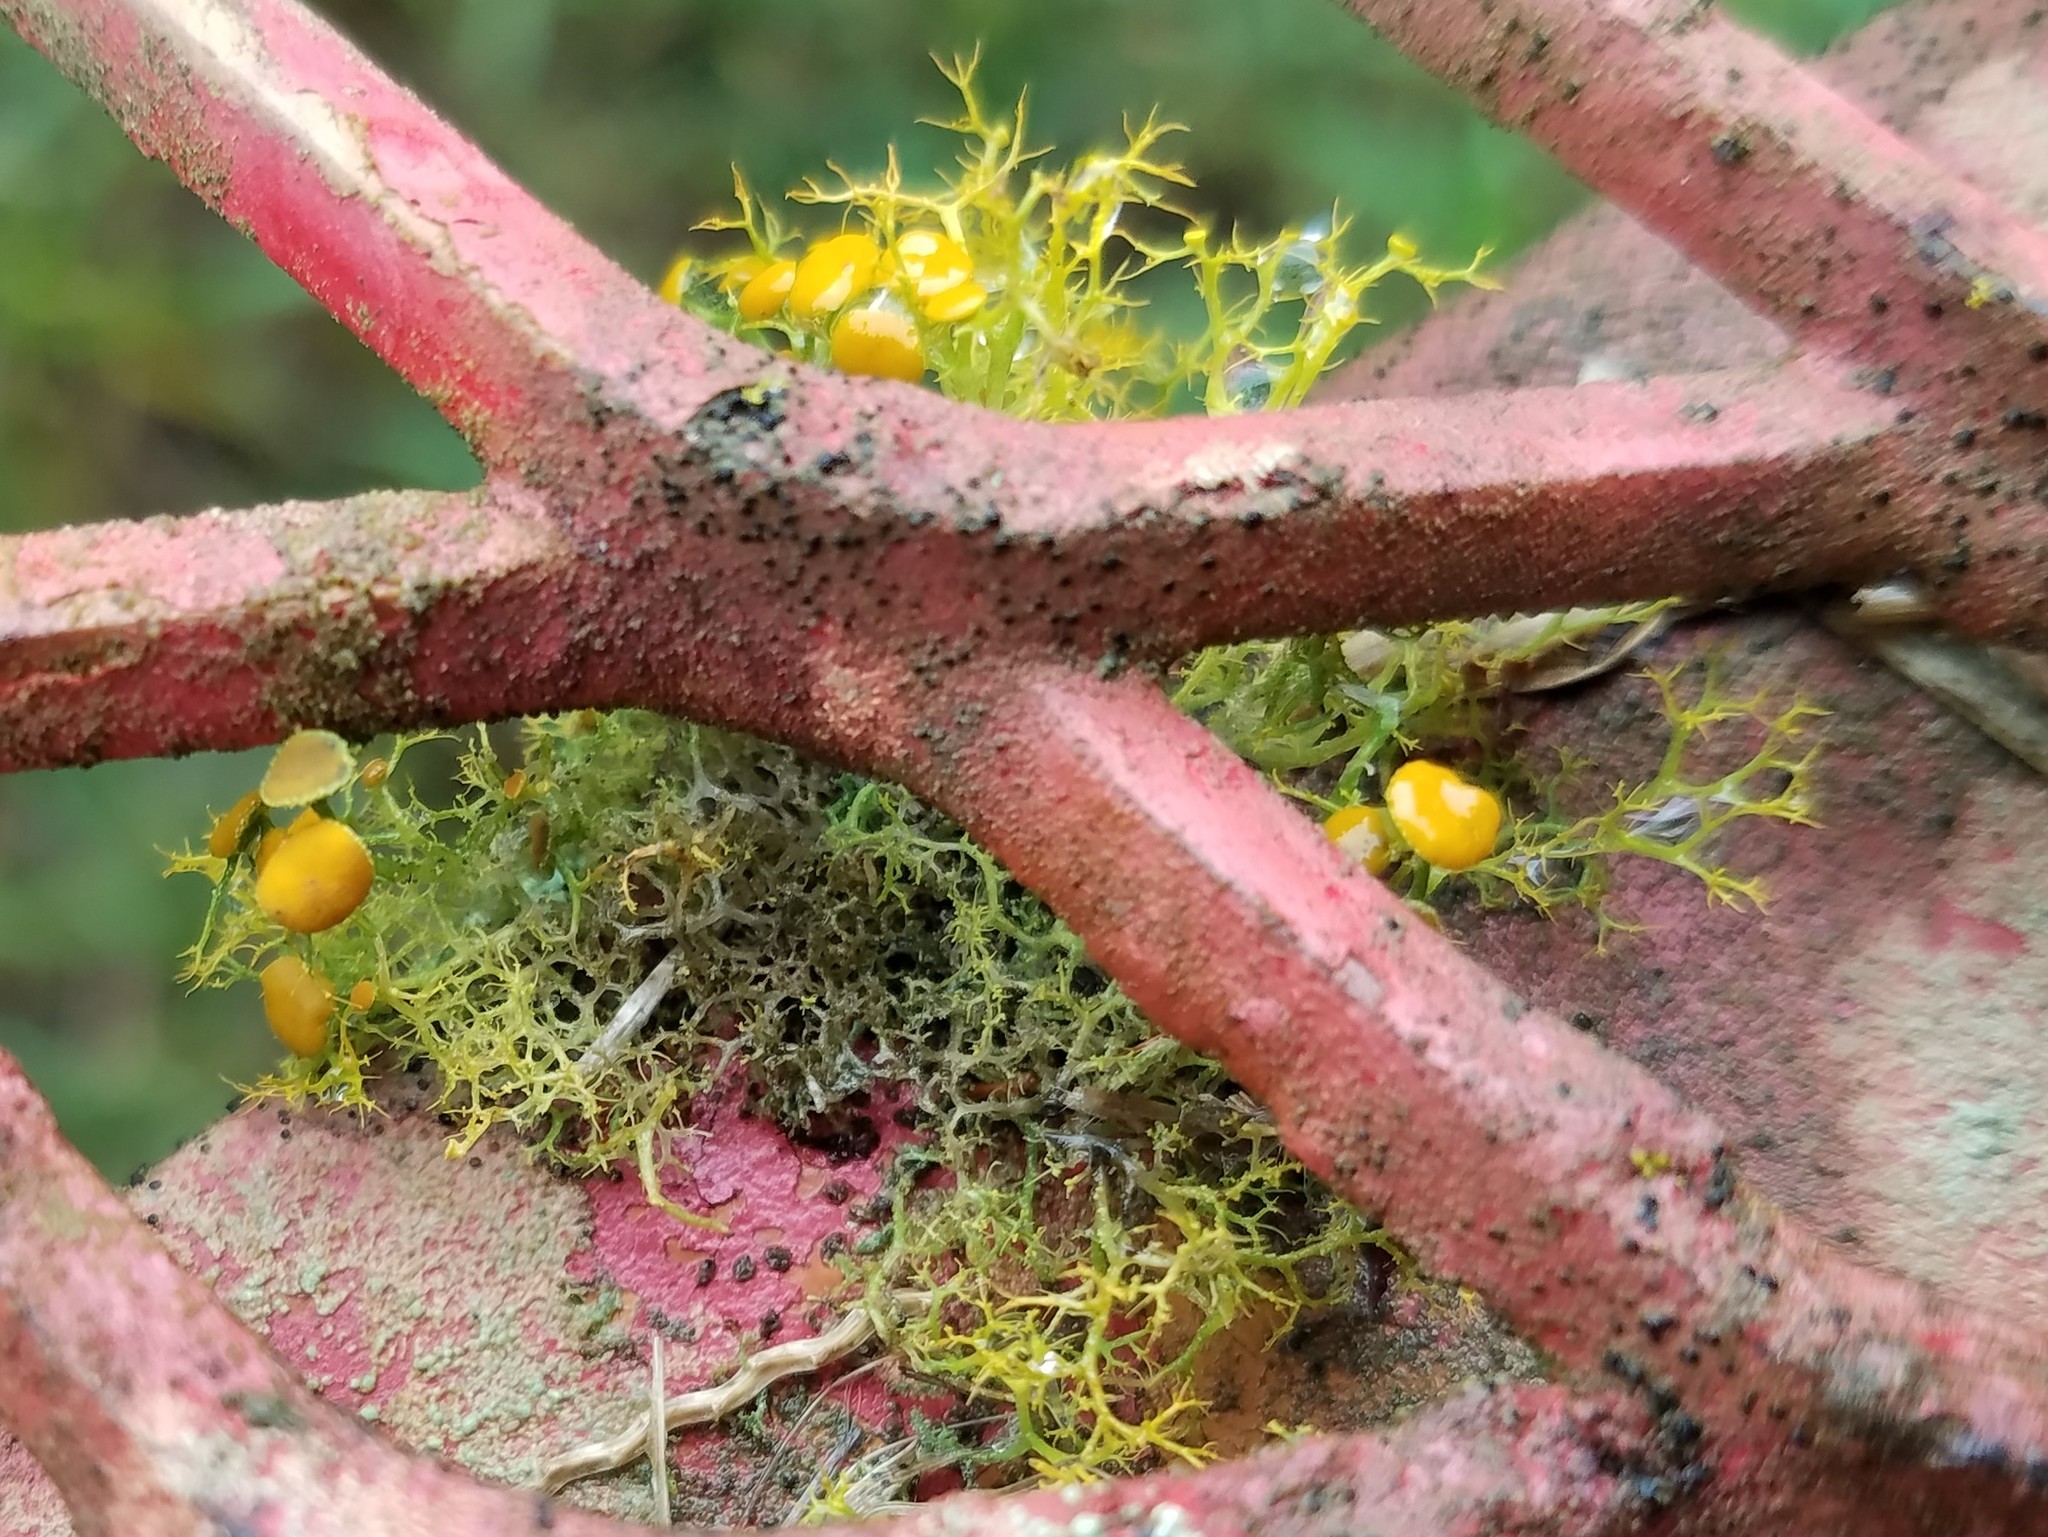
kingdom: Fungi
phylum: Ascomycota
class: Lecanoromycetes
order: Teloschistales
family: Teloschistaceae
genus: Teloschistes
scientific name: Teloschistes exilis
